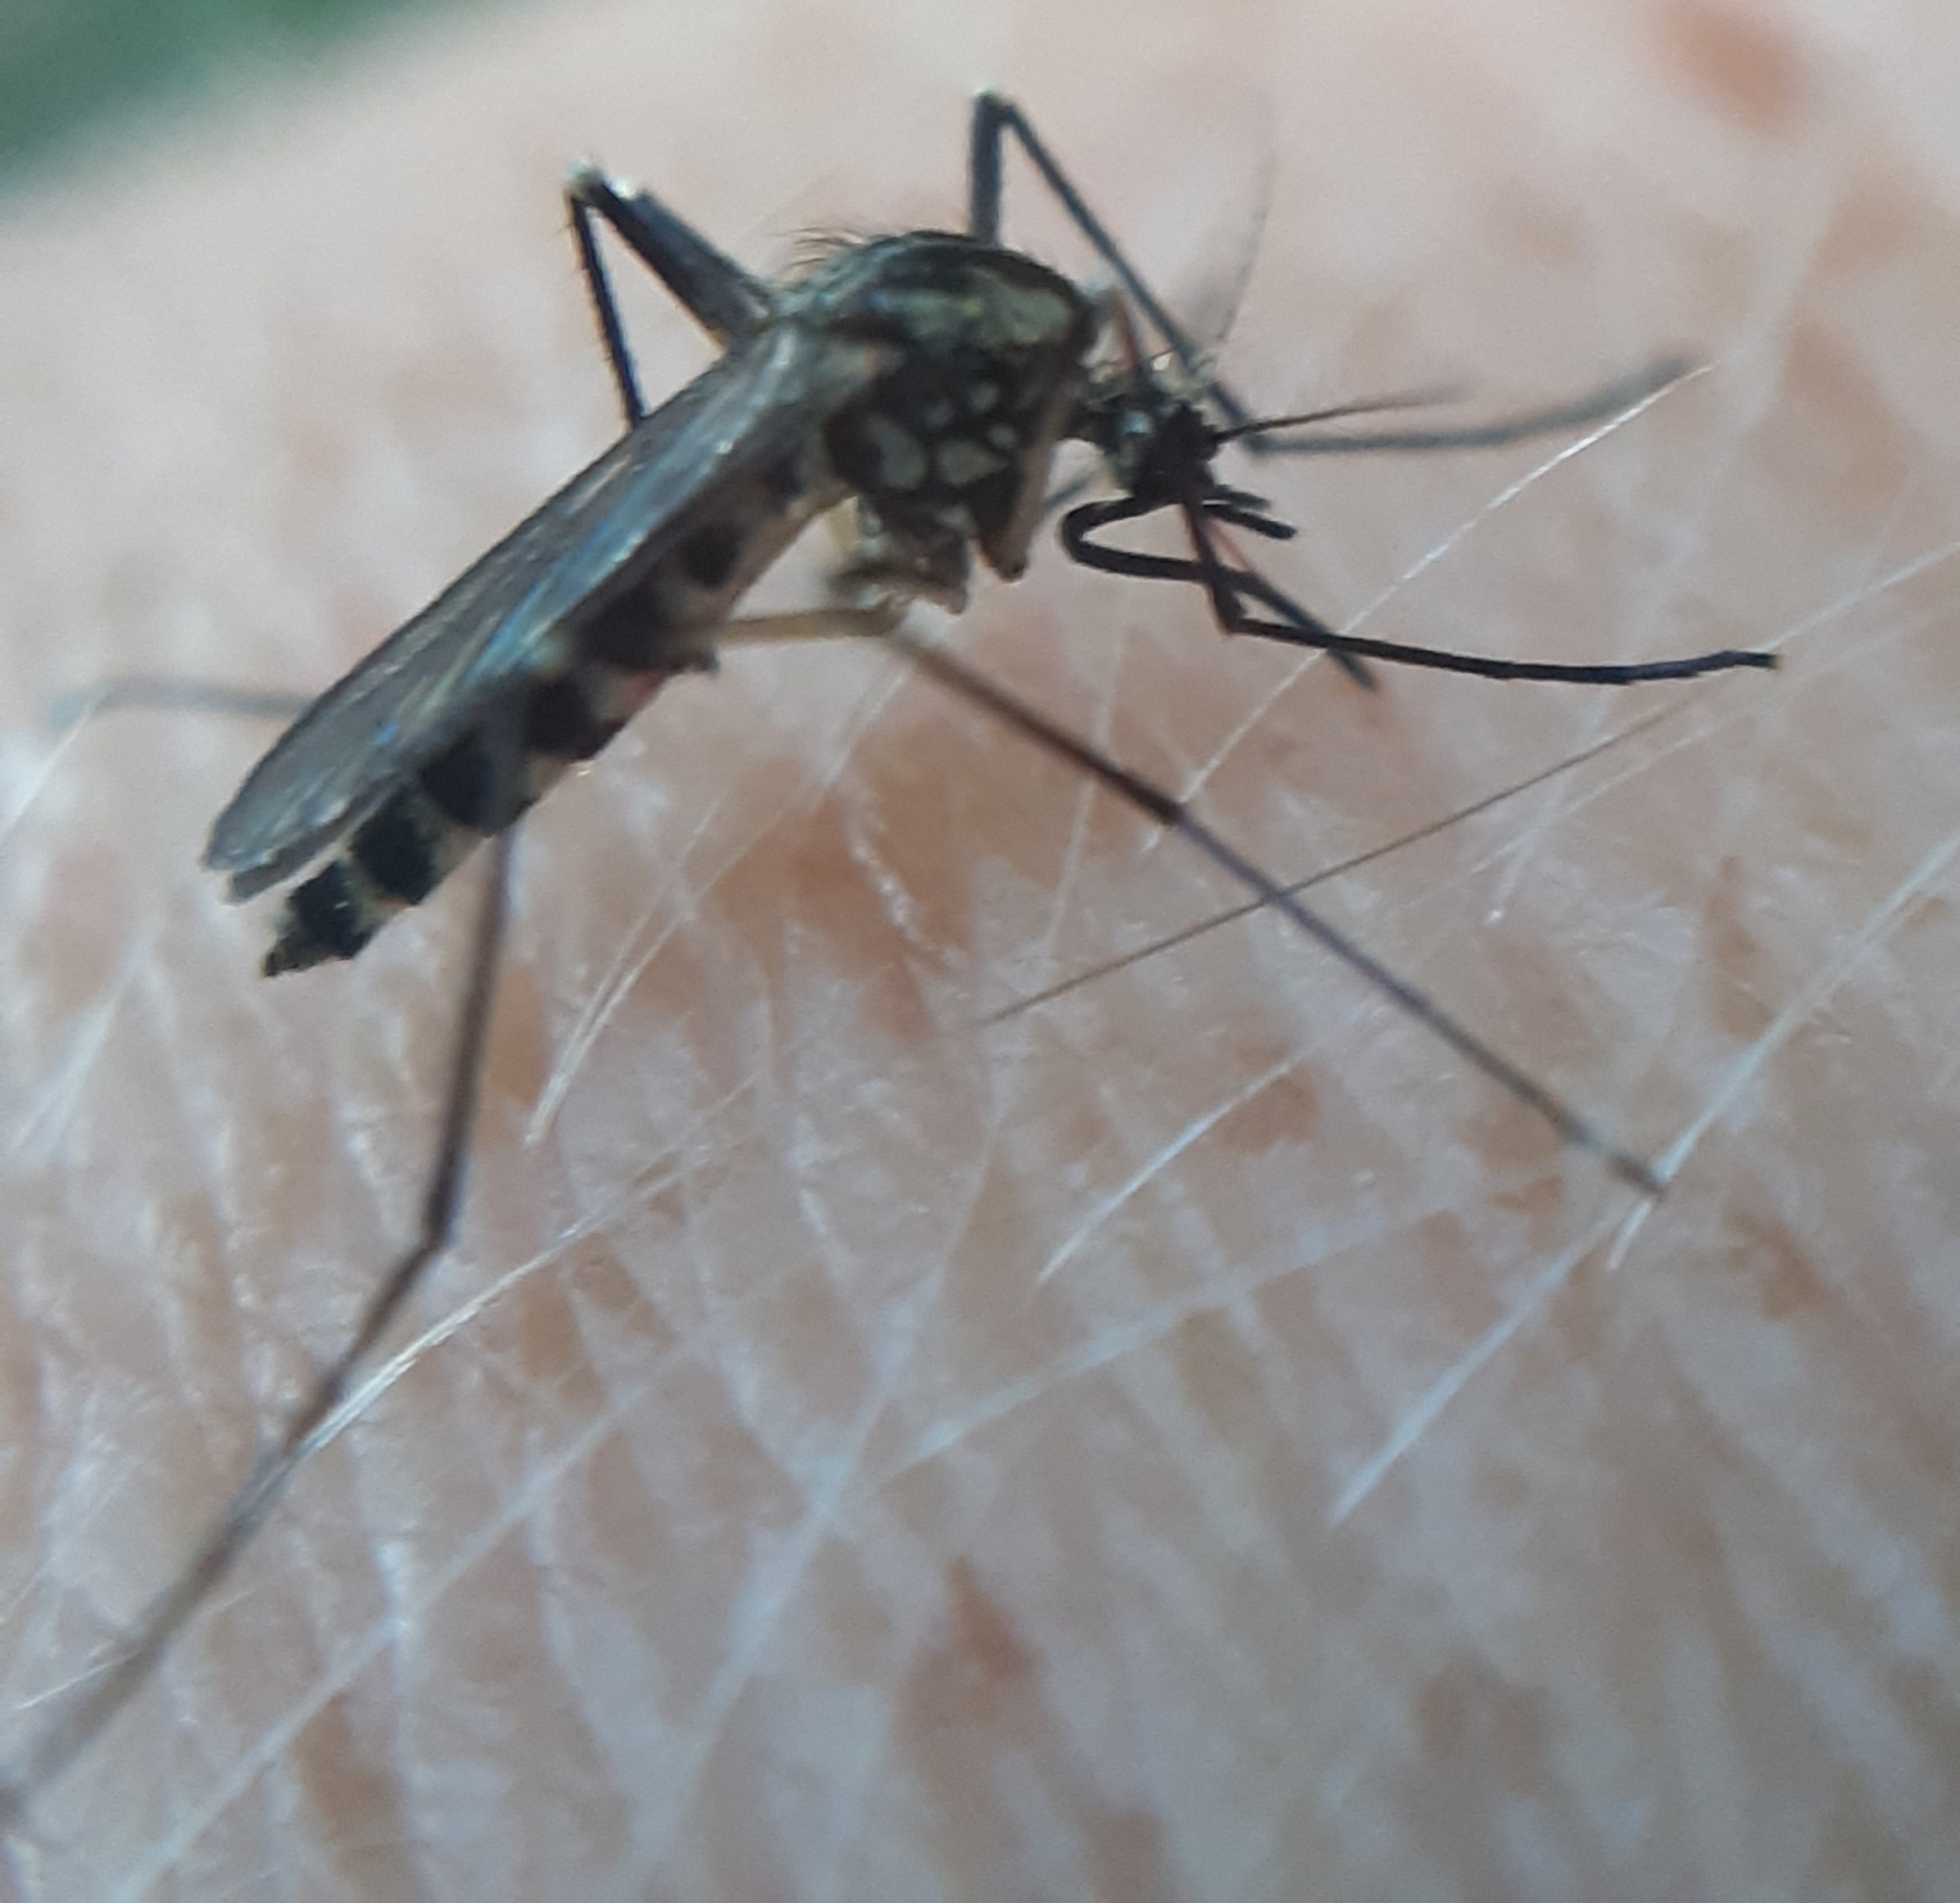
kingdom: Animalia
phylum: Arthropoda
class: Insecta
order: Diptera
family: Culicidae
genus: Aedes
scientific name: Aedes geniculatus
